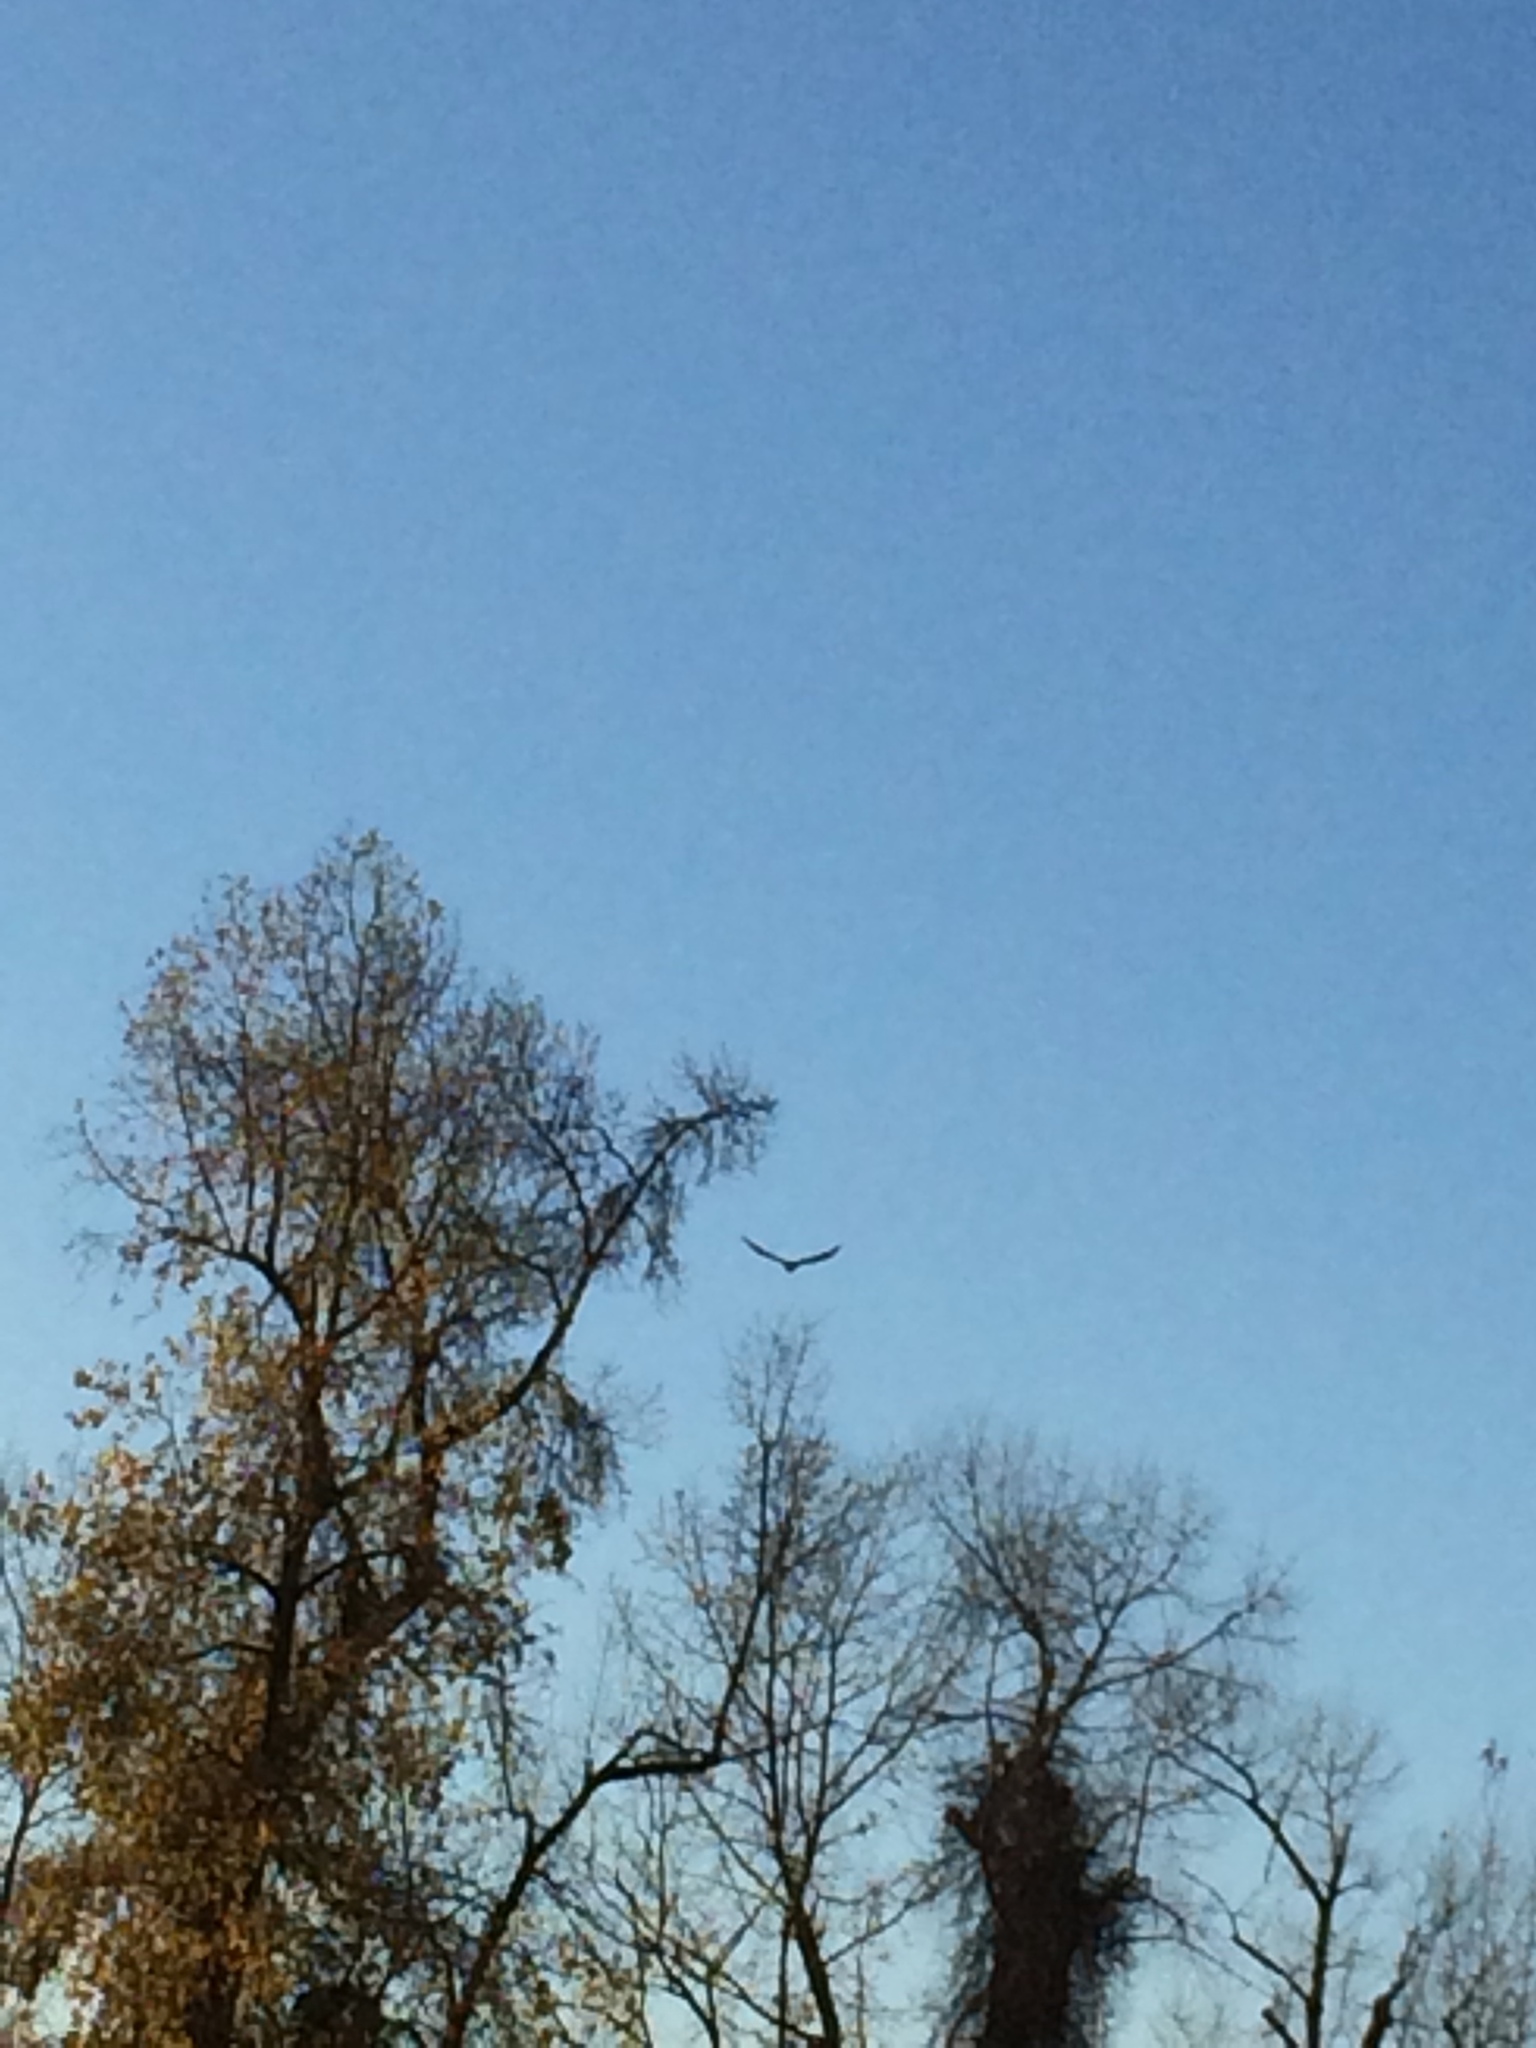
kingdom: Animalia
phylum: Chordata
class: Aves
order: Passeriformes
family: Corvidae
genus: Corvus
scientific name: Corvus corax
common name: Common raven
